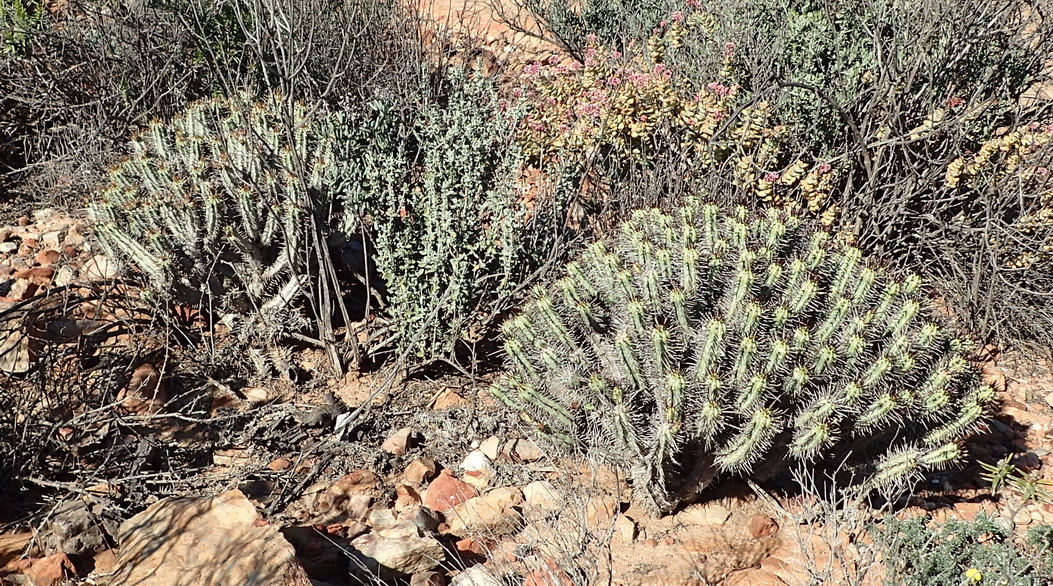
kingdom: Plantae
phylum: Tracheophyta
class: Magnoliopsida
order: Malpighiales
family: Euphorbiaceae
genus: Euphorbia
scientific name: Euphorbia heptagona
